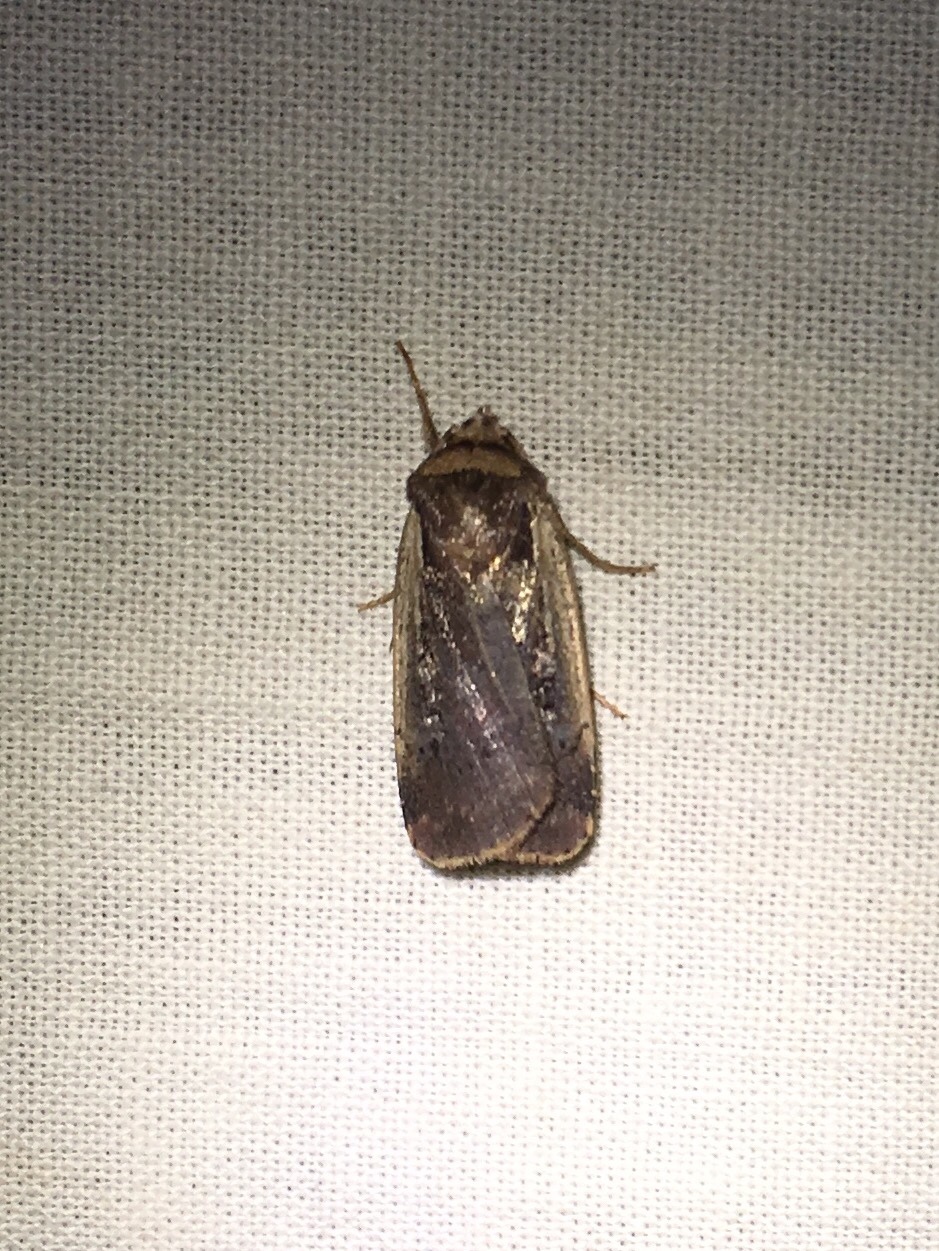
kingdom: Animalia
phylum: Arthropoda
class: Insecta
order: Lepidoptera
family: Noctuidae
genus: Ochropleura
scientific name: Ochropleura implecta
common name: Flame-shouldered dart
